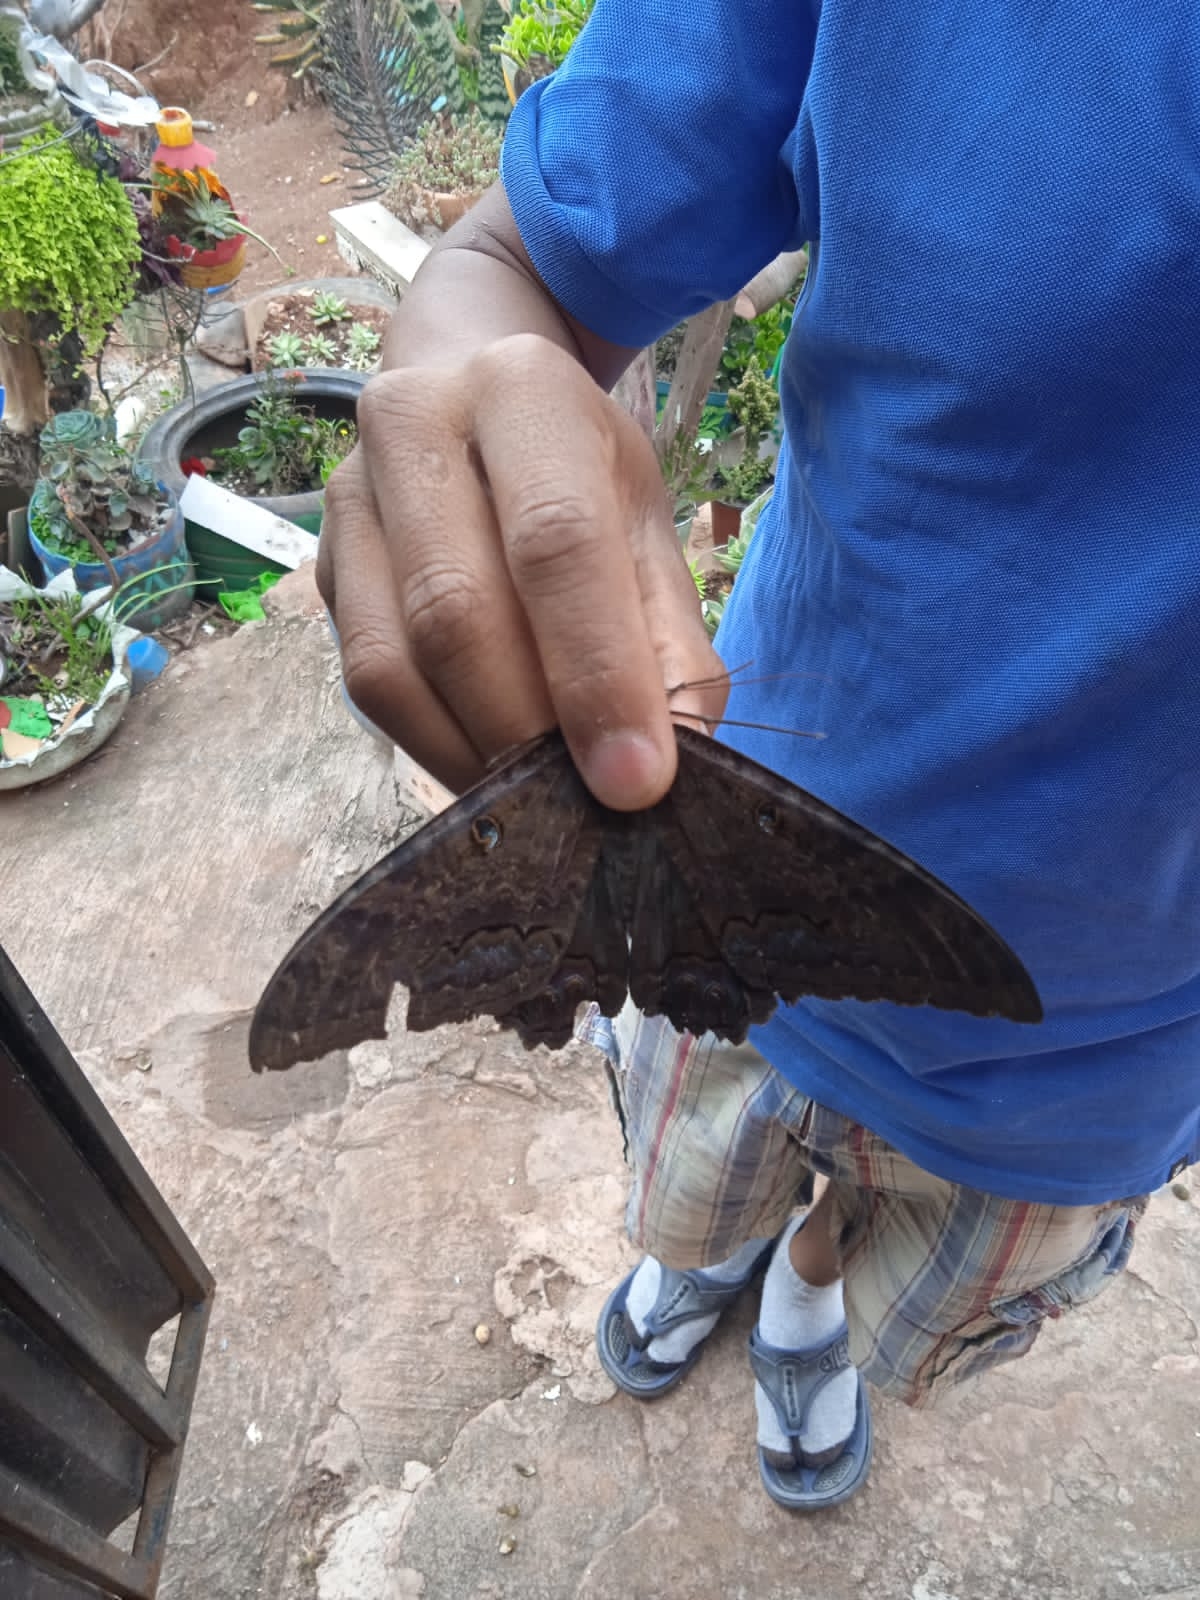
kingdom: Animalia
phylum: Arthropoda
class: Insecta
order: Lepidoptera
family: Erebidae
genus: Ascalapha
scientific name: Ascalapha odorata
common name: Black witch
